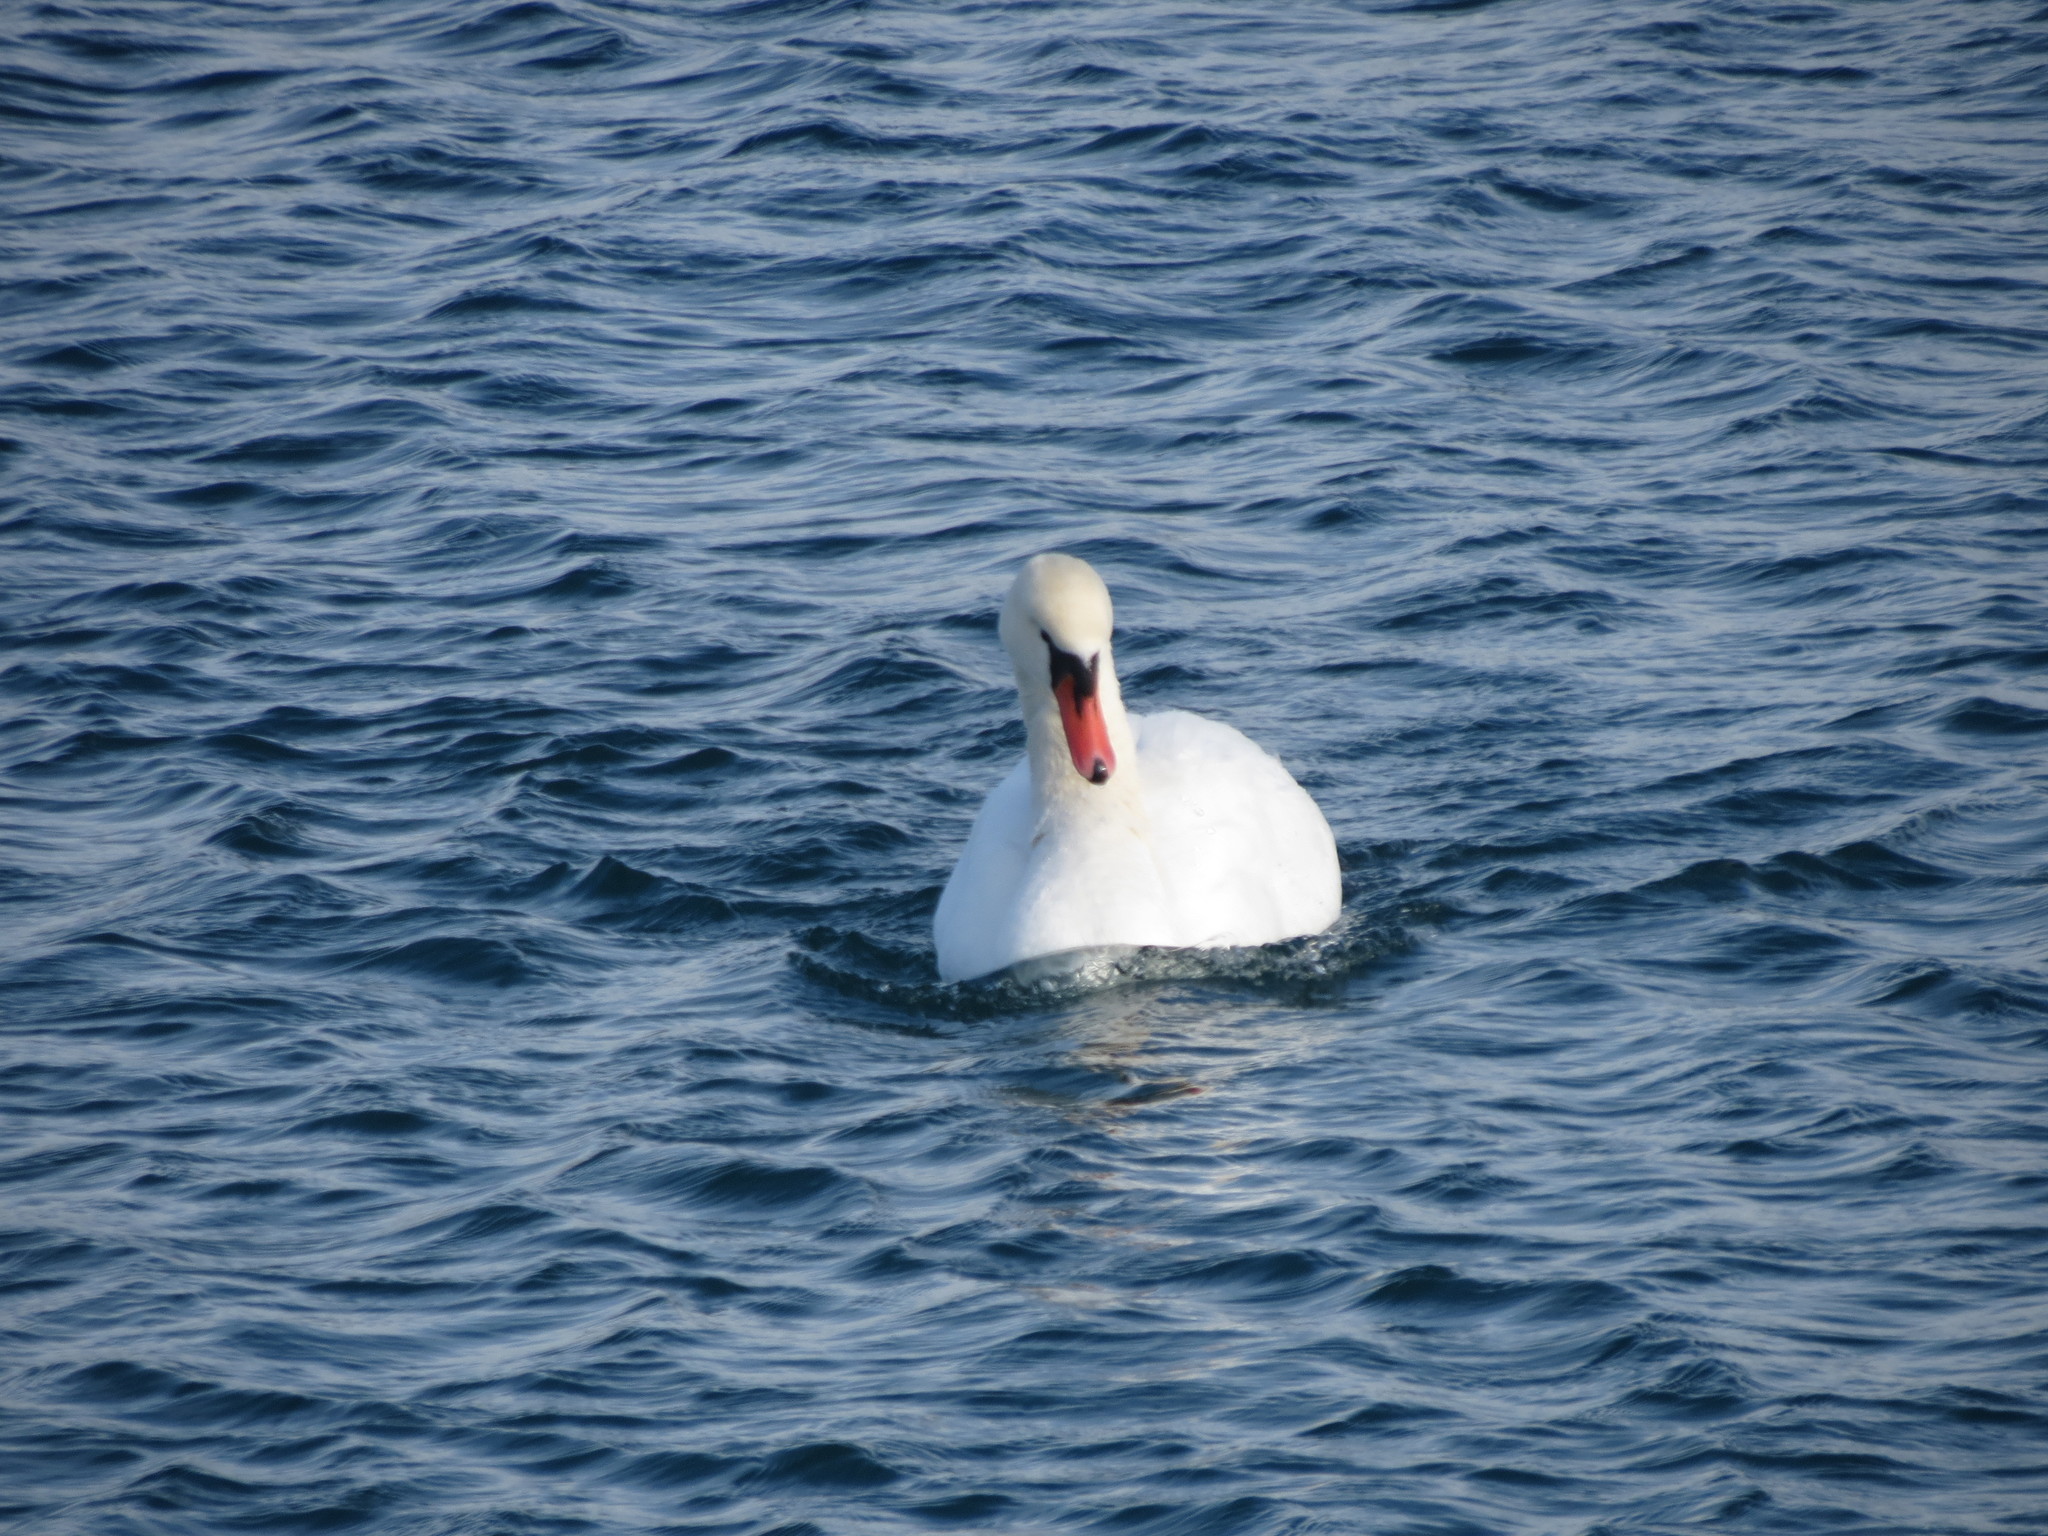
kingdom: Animalia
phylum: Chordata
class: Aves
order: Anseriformes
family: Anatidae
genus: Cygnus
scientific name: Cygnus olor
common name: Mute swan
